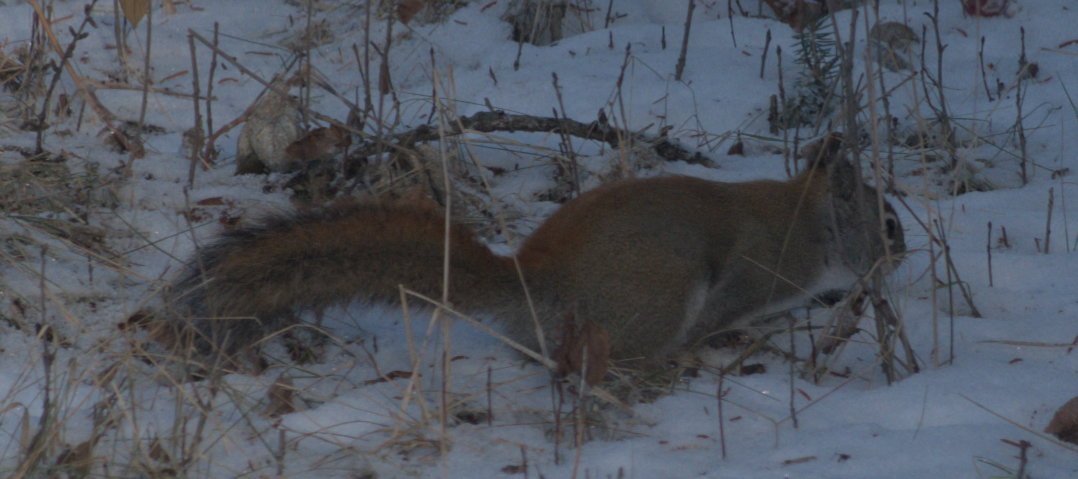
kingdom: Animalia
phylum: Chordata
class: Mammalia
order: Rodentia
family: Sciuridae
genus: Tamiasciurus
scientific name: Tamiasciurus hudsonicus
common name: Red squirrel
